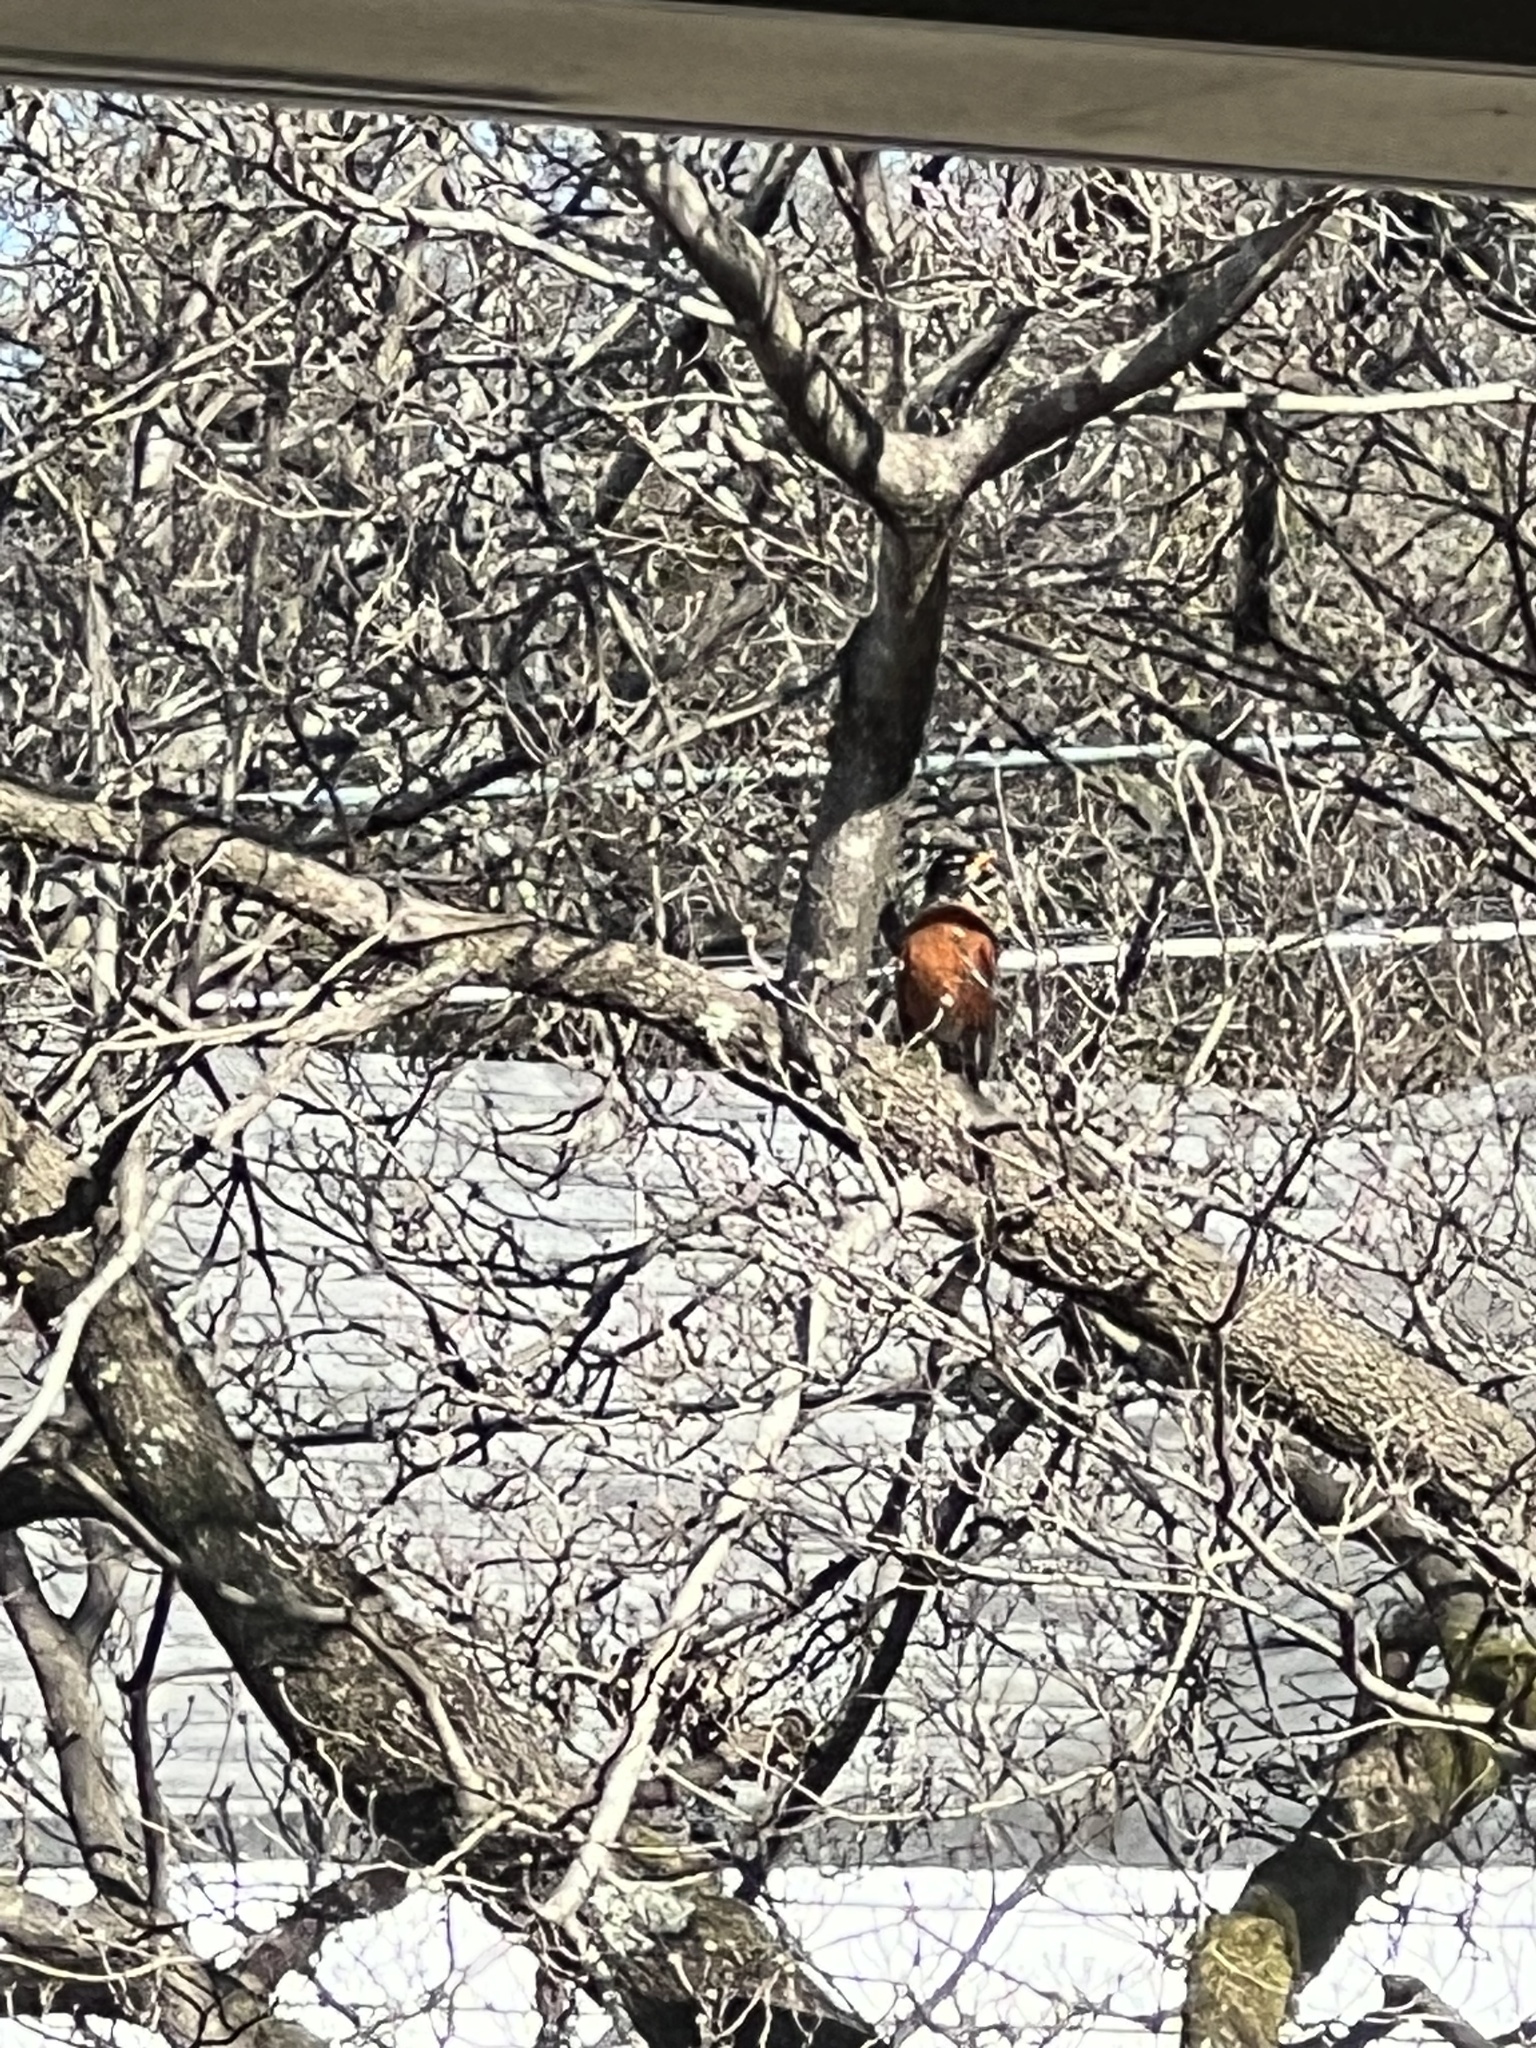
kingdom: Animalia
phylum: Chordata
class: Aves
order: Passeriformes
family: Turdidae
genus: Turdus
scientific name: Turdus migratorius
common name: American robin
